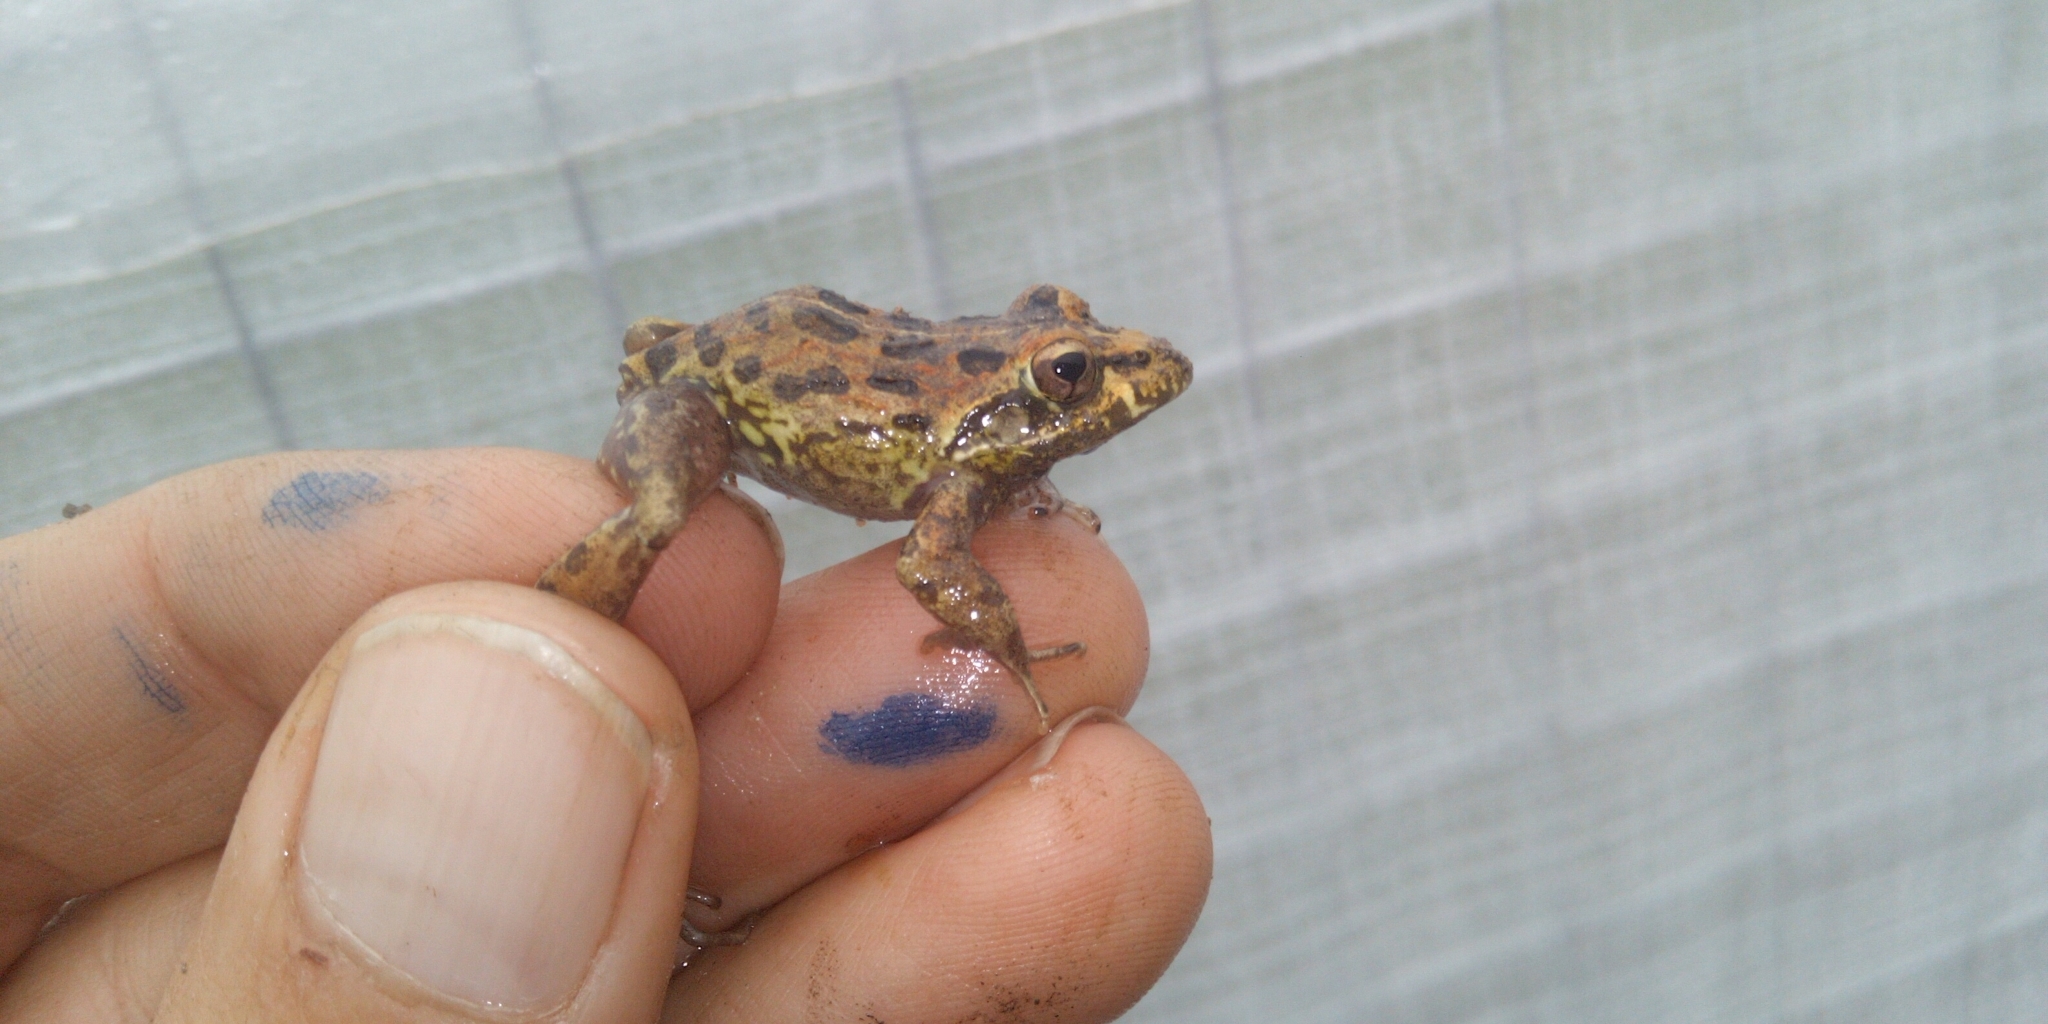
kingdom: Animalia
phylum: Chordata
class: Amphibia
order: Anura
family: Pyxicephalidae
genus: Strongylopus
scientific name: Strongylopus grayii
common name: Gray's stream frog
